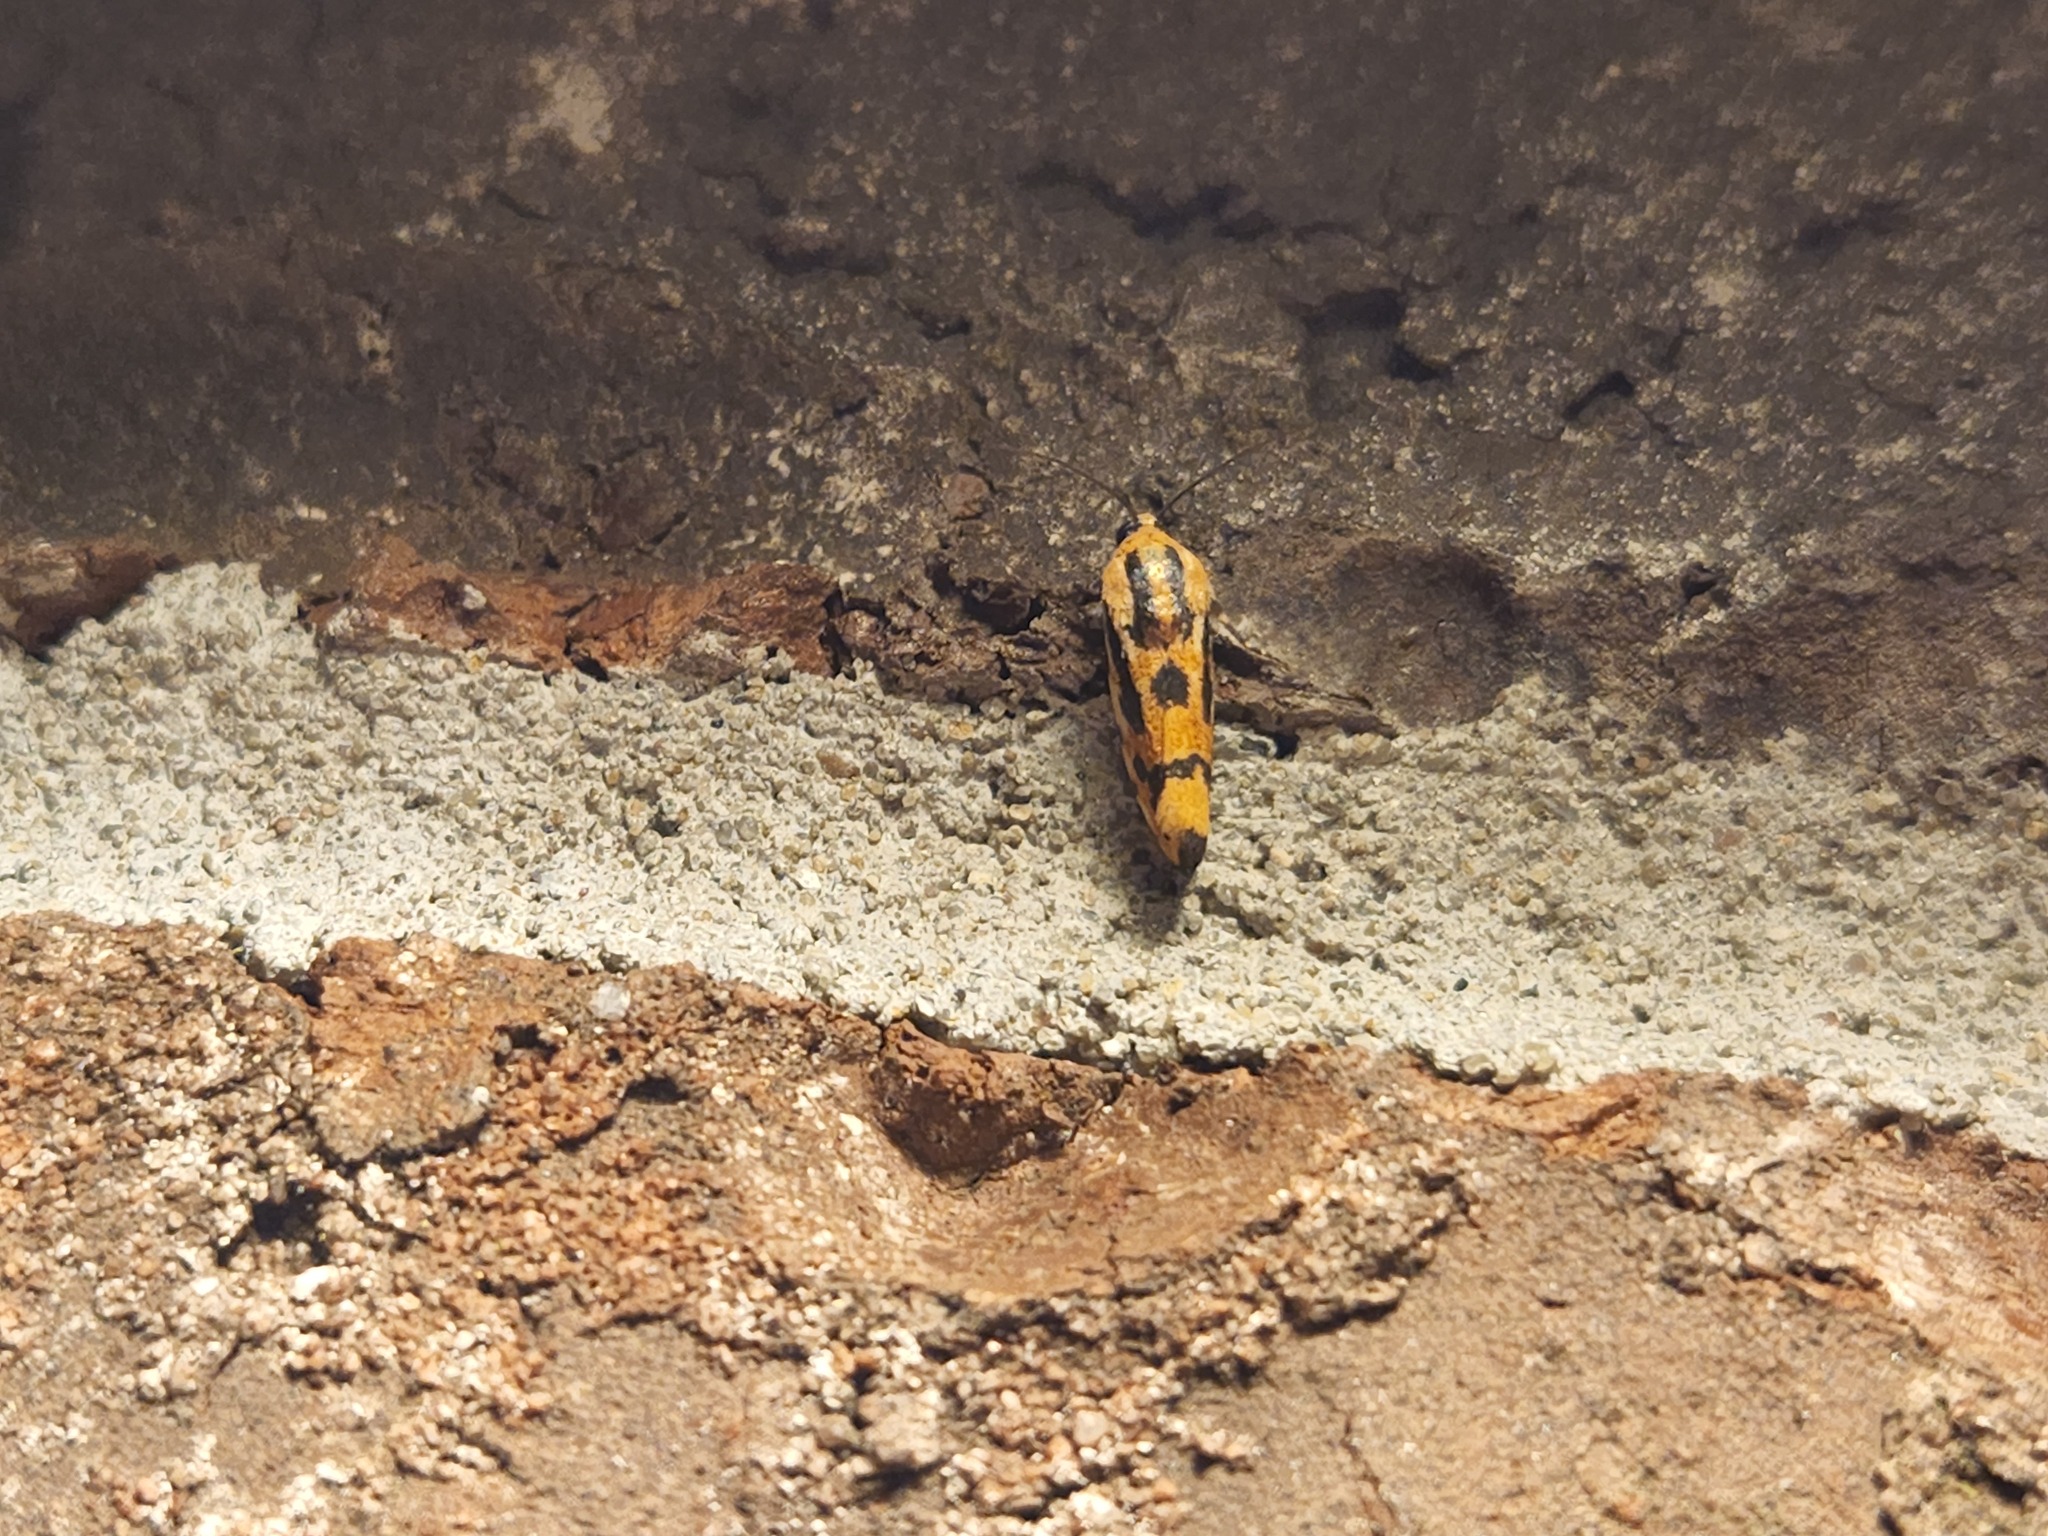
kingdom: Animalia
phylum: Arthropoda
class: Insecta
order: Lepidoptera
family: Noctuidae
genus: Acontia
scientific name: Acontia leo
